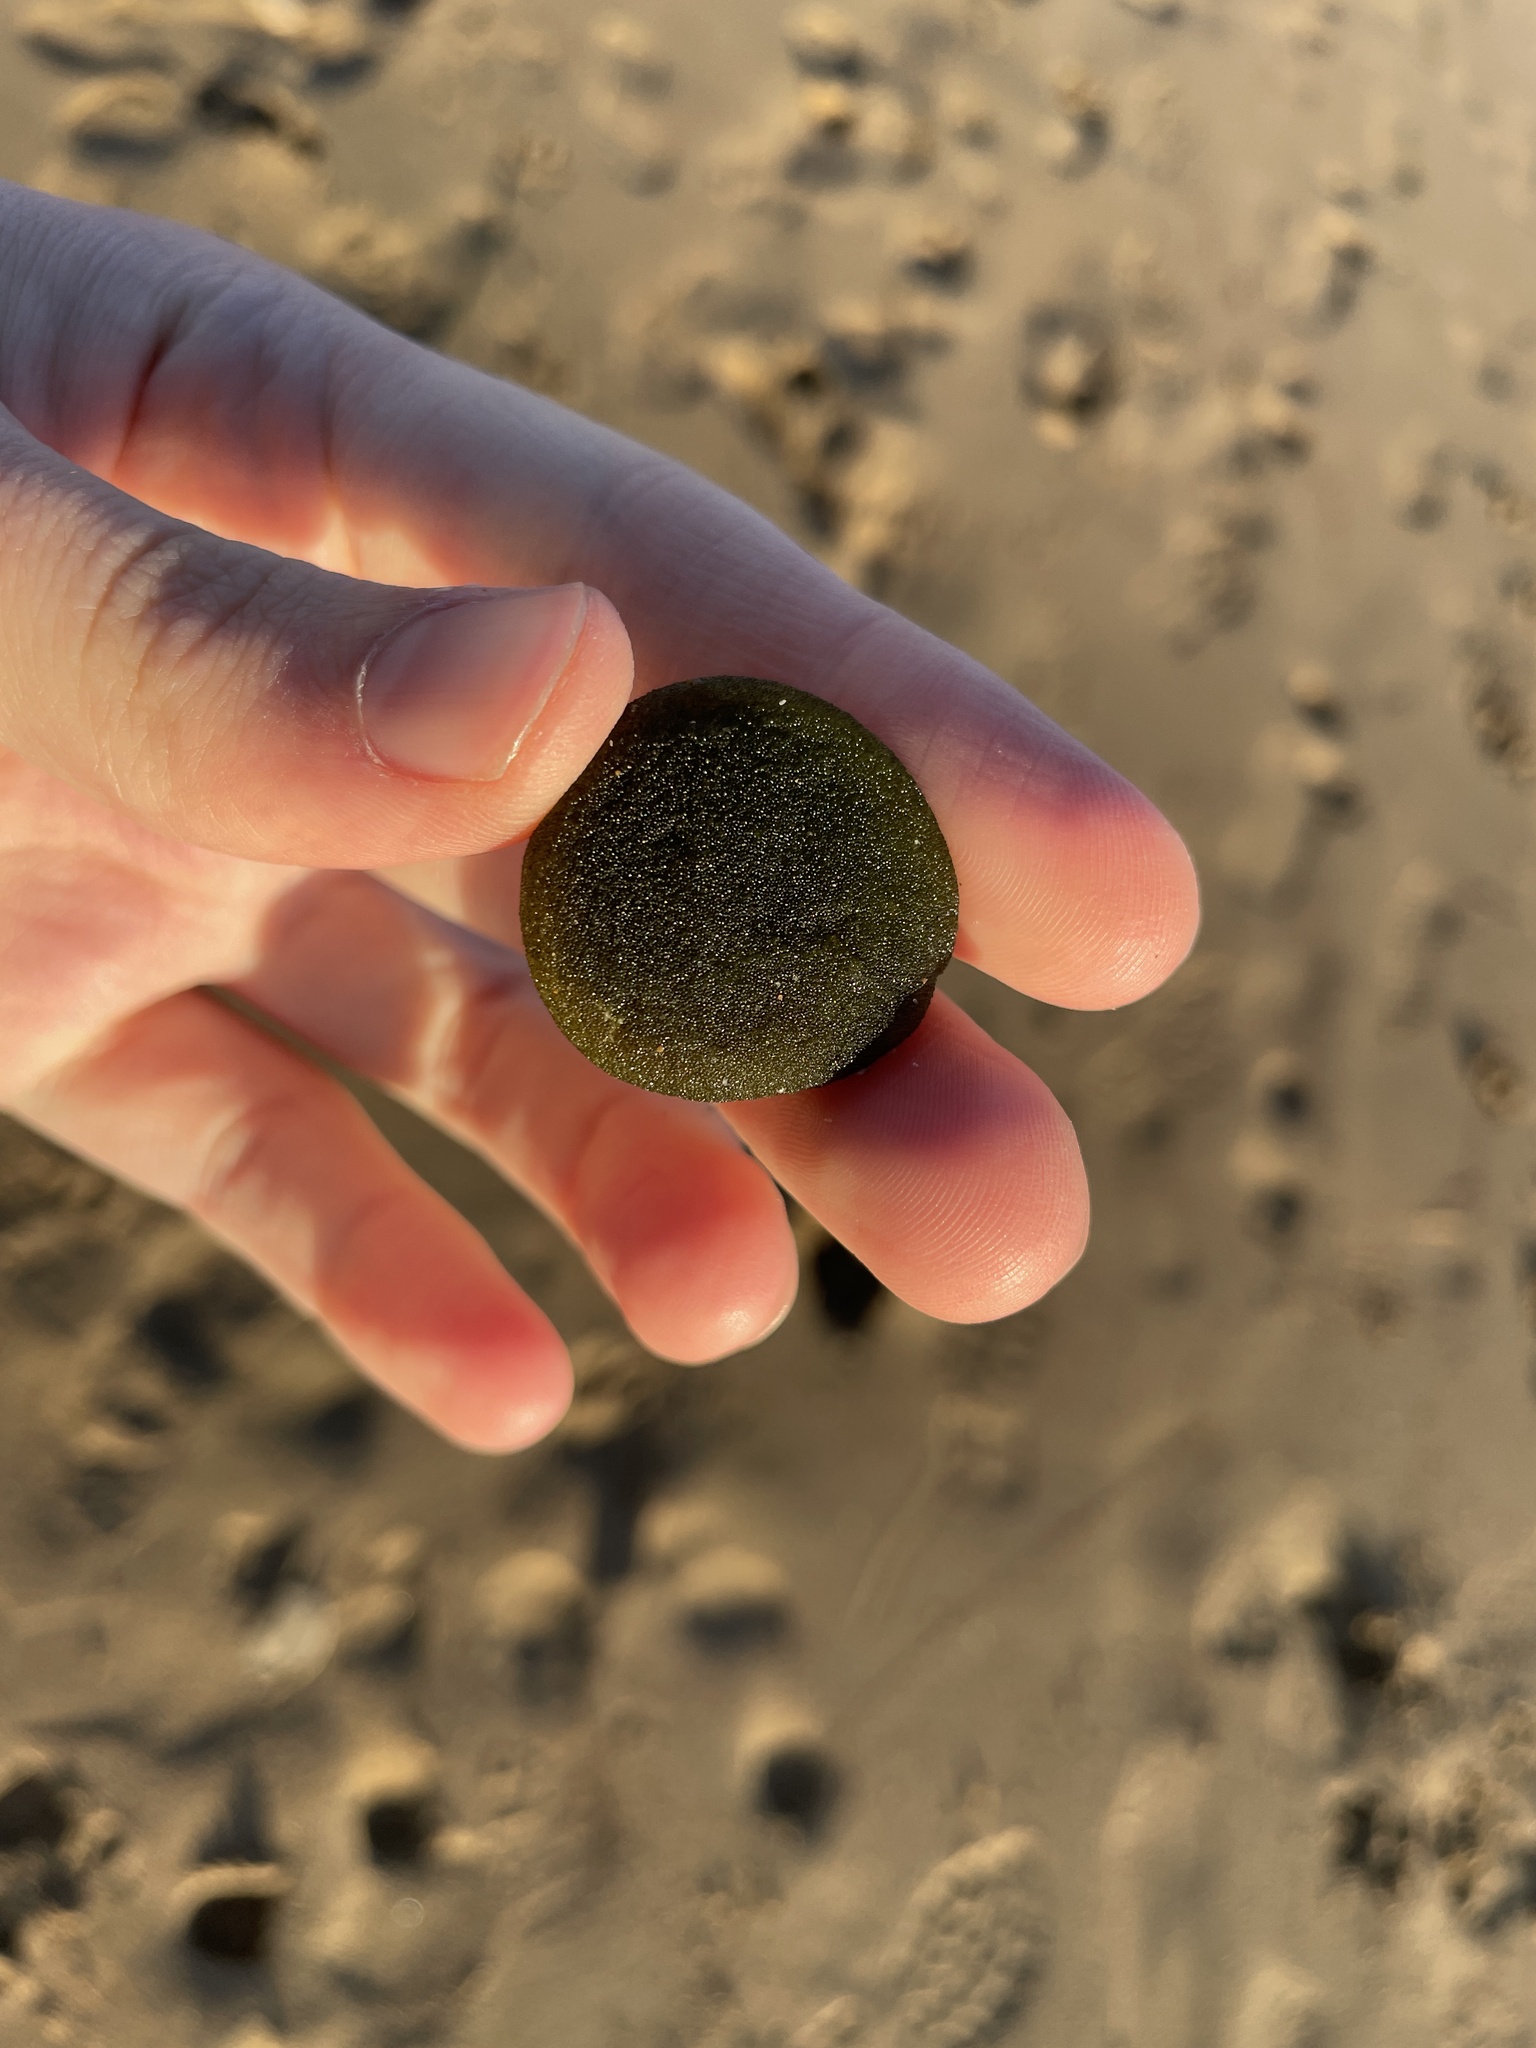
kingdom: Plantae
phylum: Chlorophyta
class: Ulvophyceae
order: Bryopsidales
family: Codiaceae
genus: Codium
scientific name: Codium bursa
